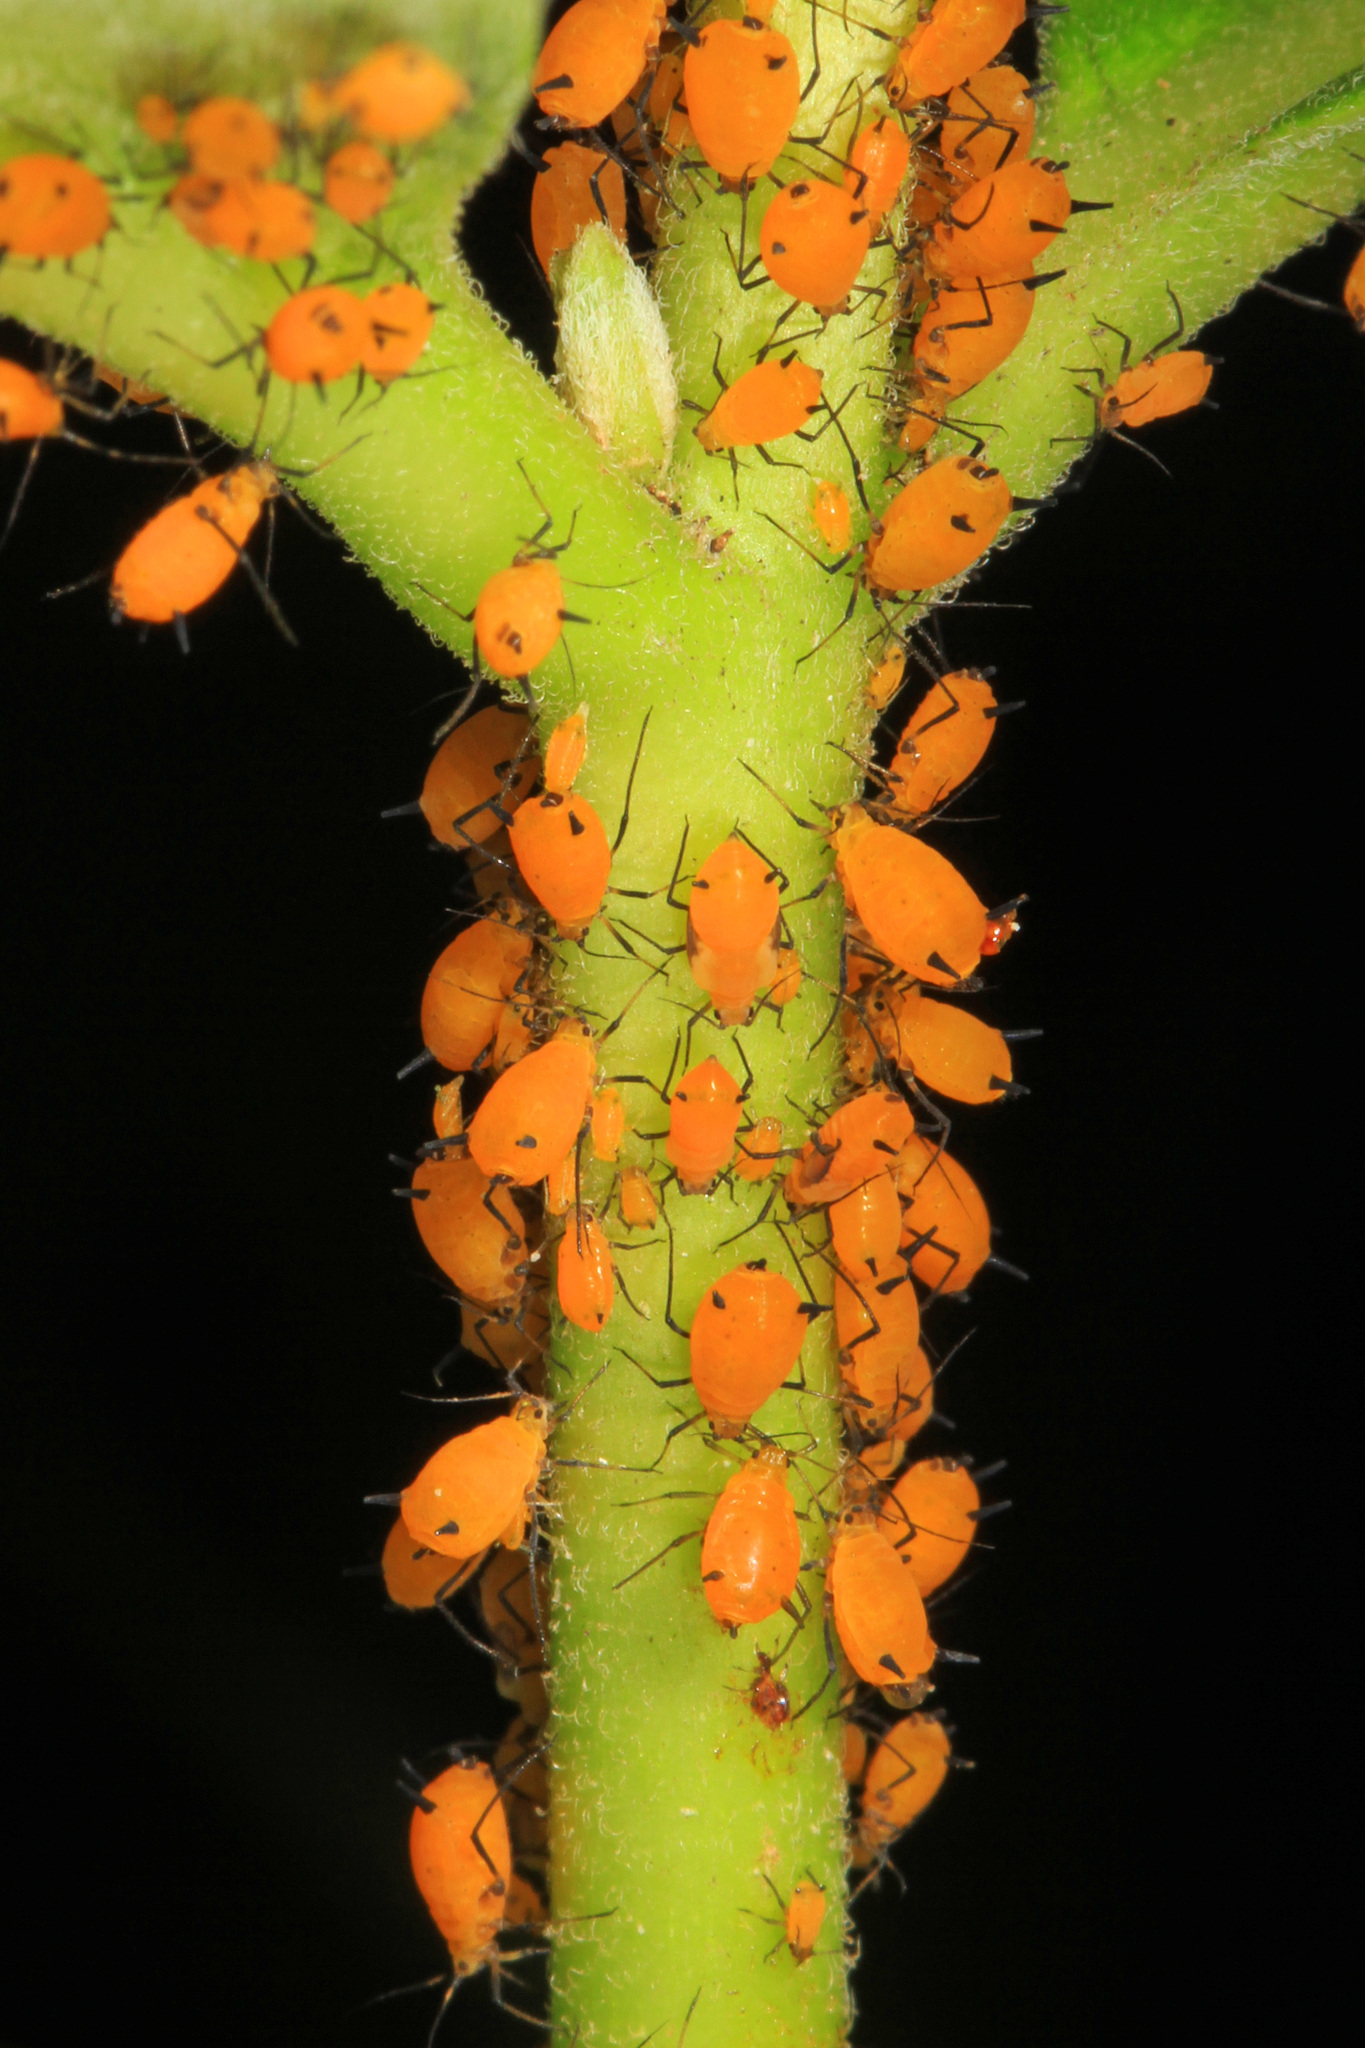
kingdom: Animalia
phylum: Arthropoda
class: Insecta
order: Hemiptera
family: Aphididae
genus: Aphis
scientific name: Aphis nerii
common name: Oleander aphid
